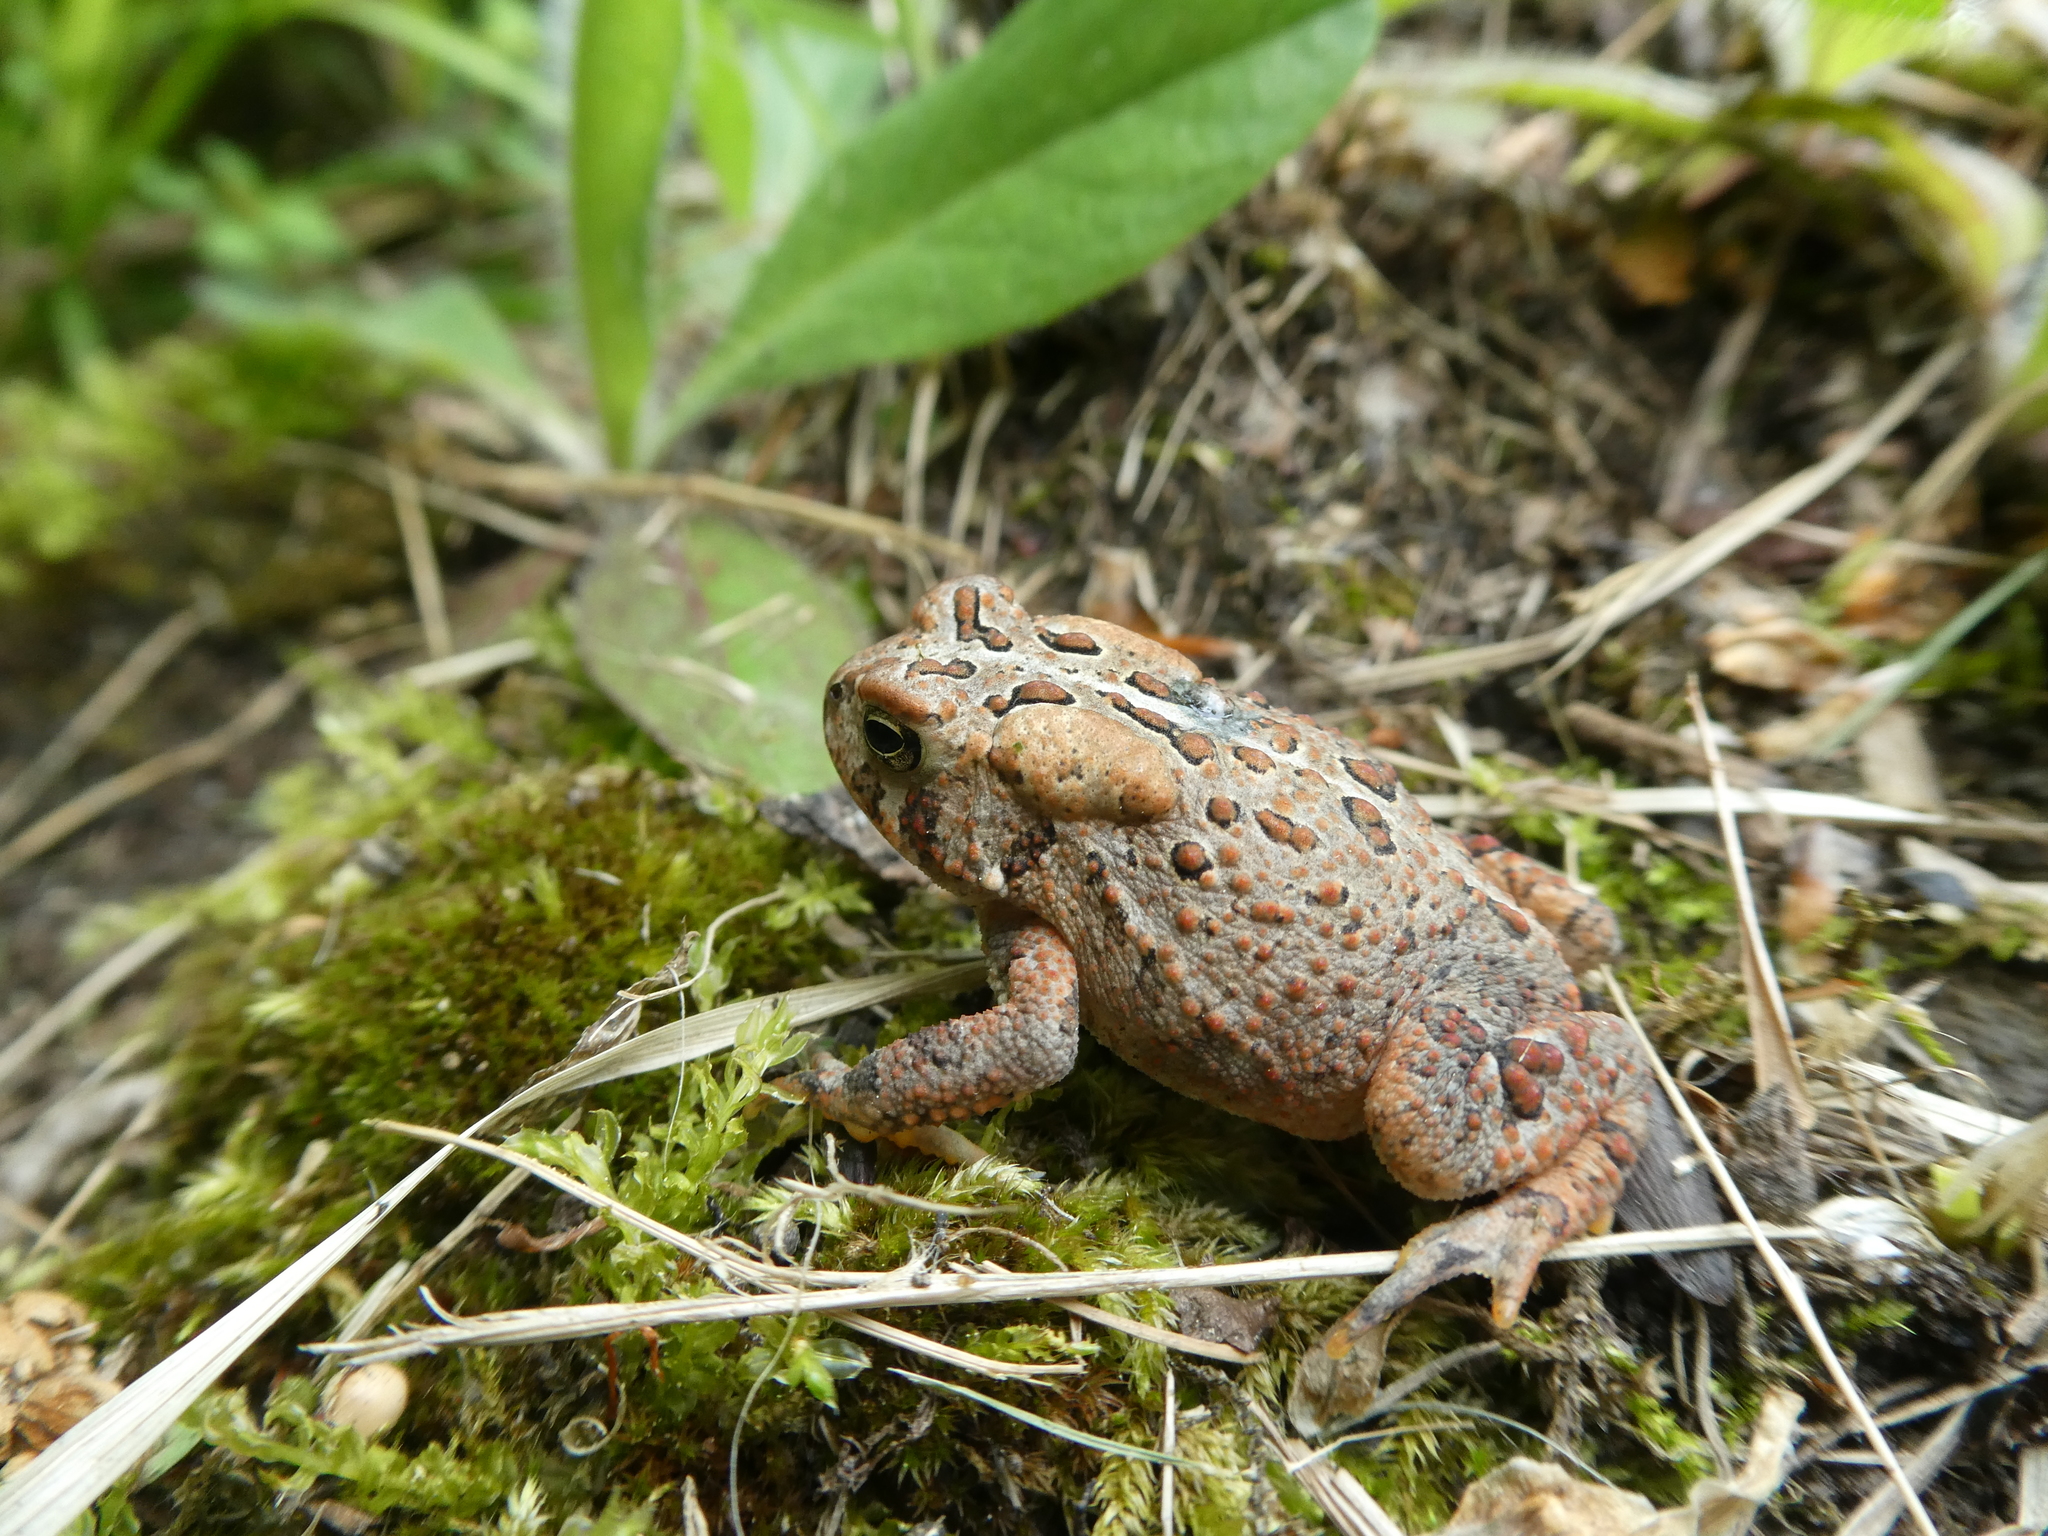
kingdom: Animalia
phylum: Chordata
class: Amphibia
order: Anura
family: Bufonidae
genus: Anaxyrus
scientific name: Anaxyrus americanus
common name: American toad
